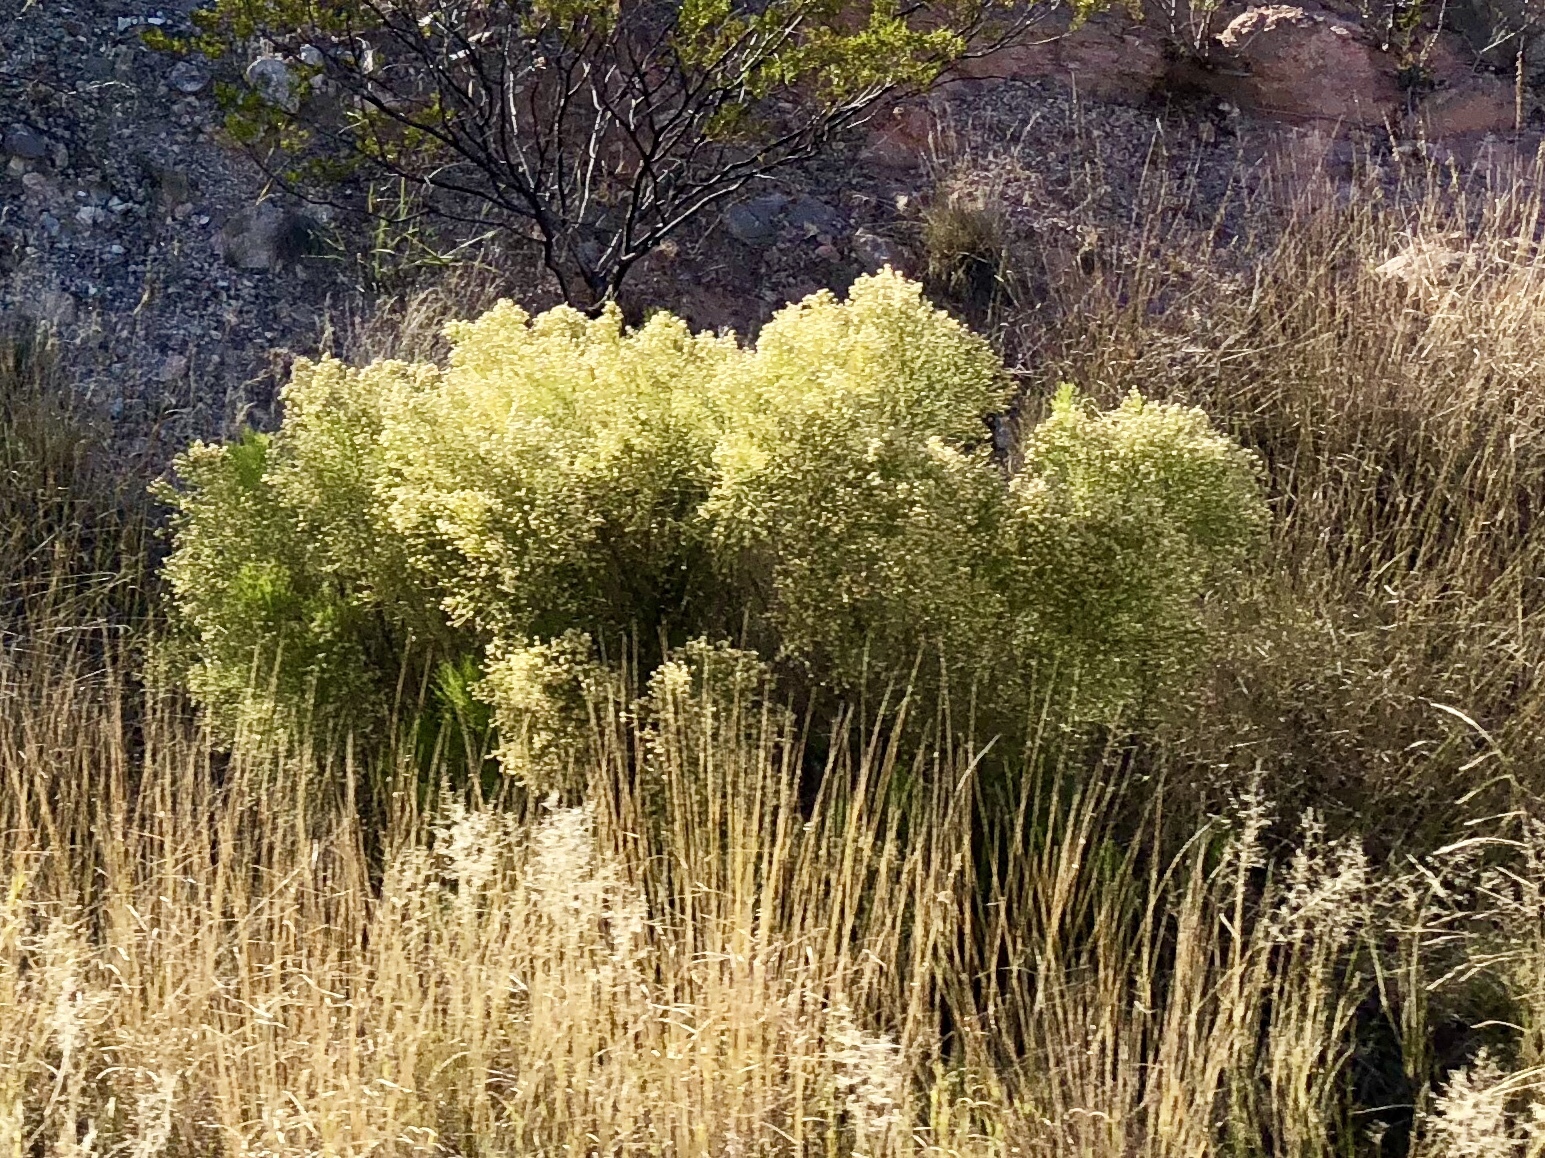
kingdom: Plantae
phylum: Tracheophyta
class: Magnoliopsida
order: Asterales
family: Asteraceae
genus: Baccharis
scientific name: Baccharis sarothroides
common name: Desert-broom
